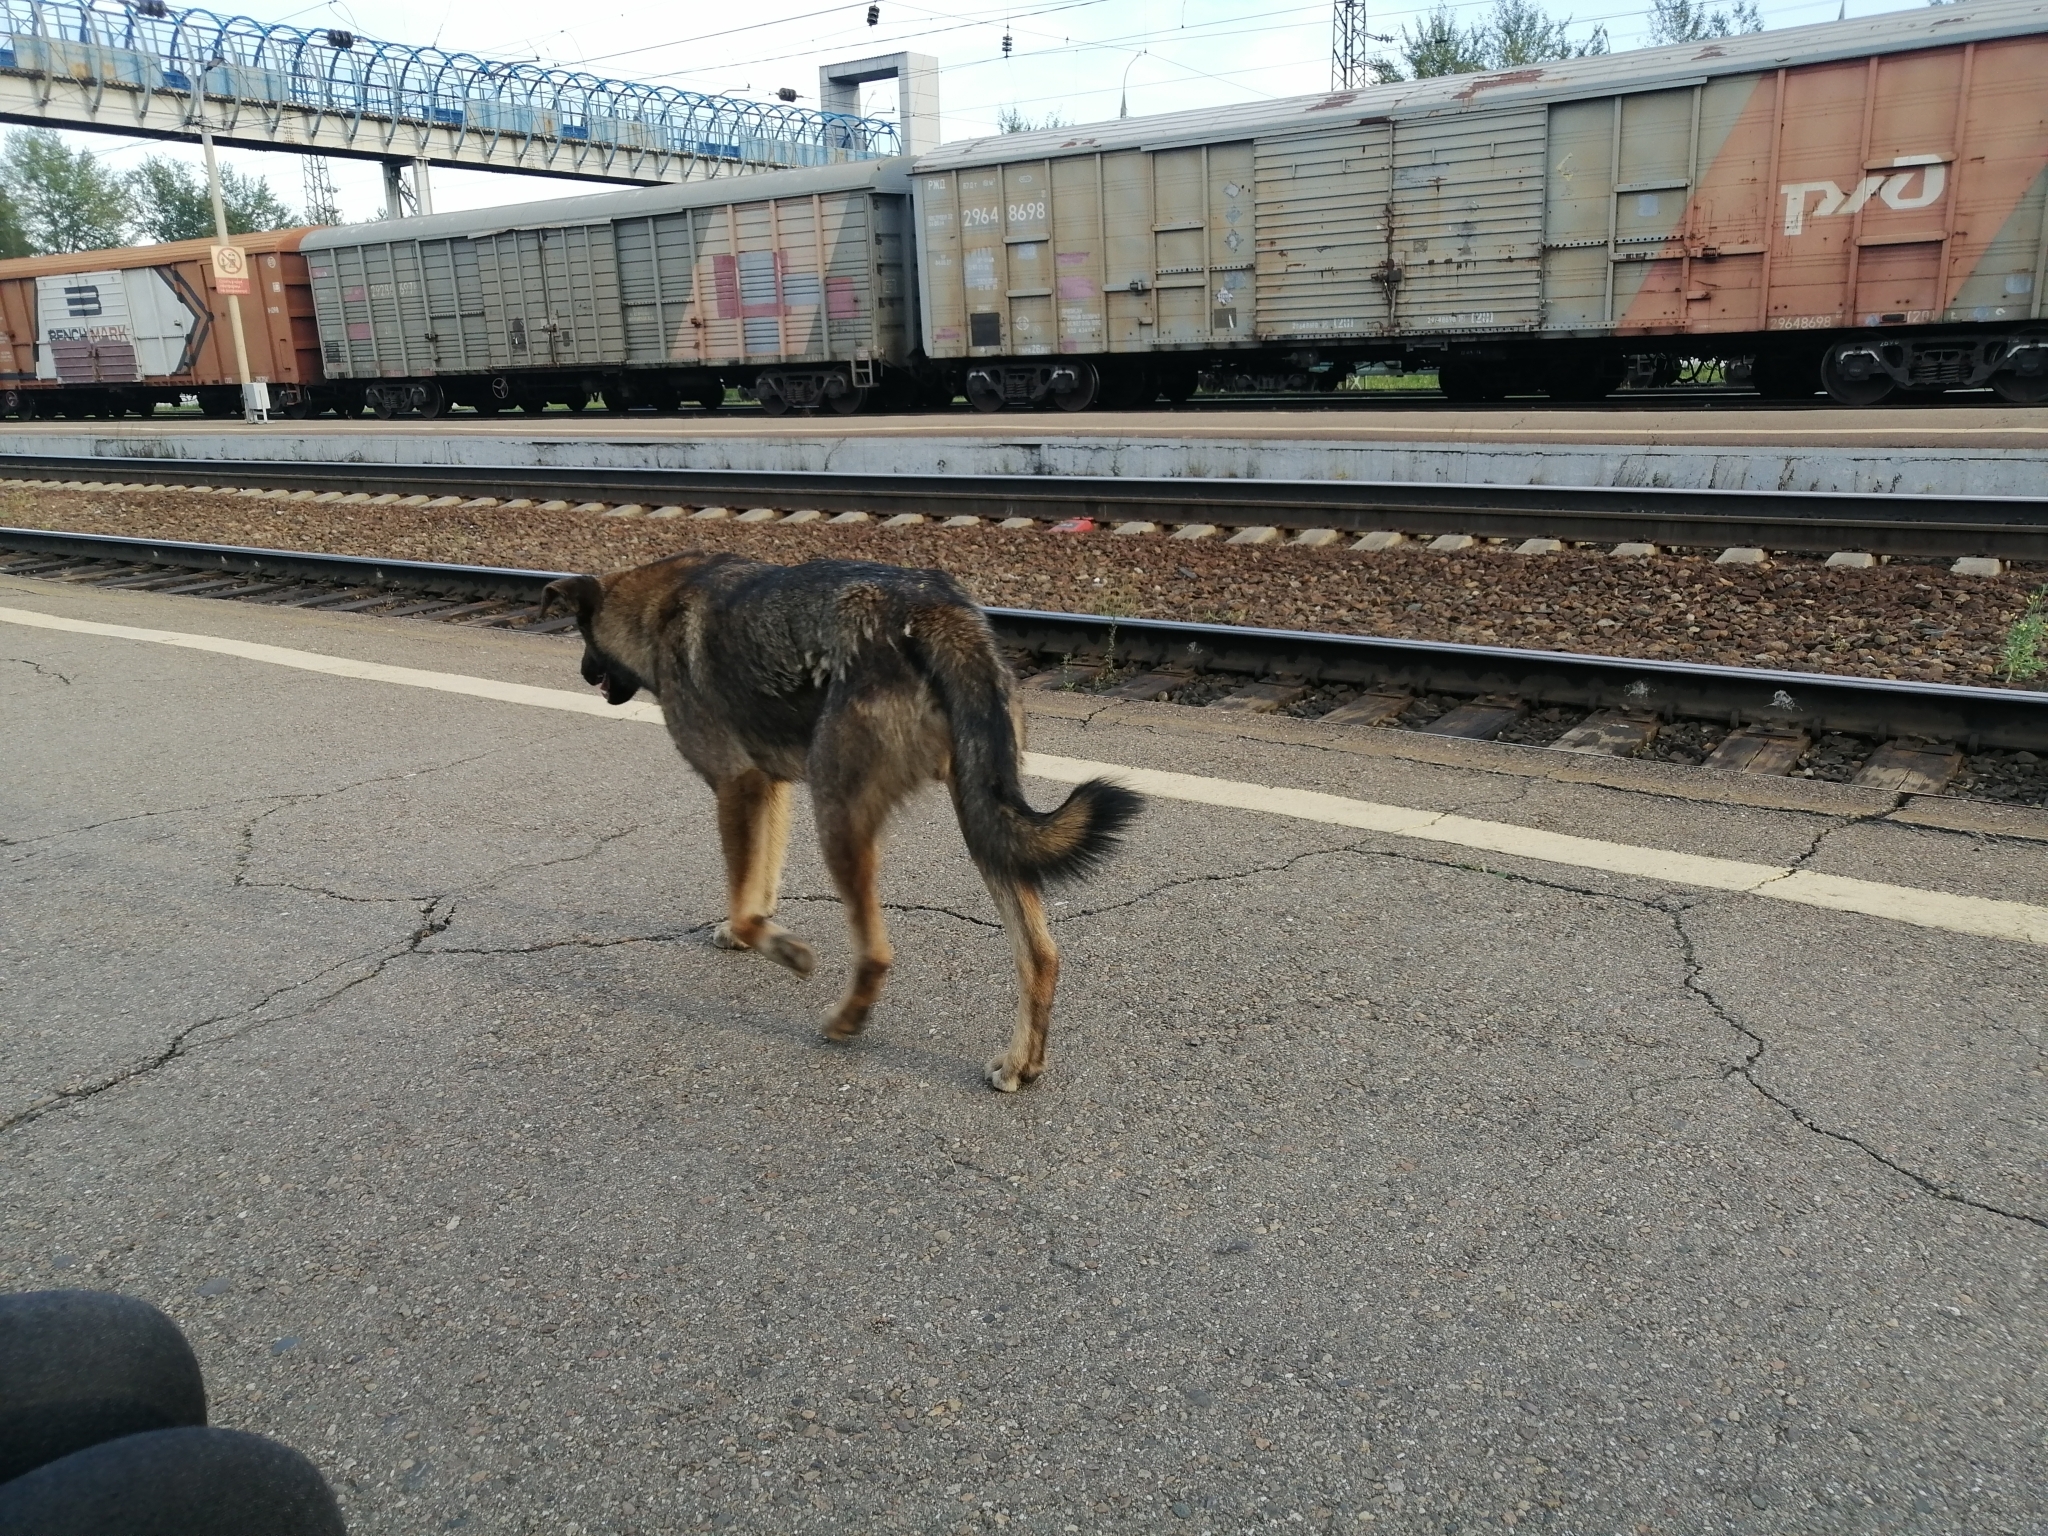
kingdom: Animalia
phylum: Chordata
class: Mammalia
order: Carnivora
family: Canidae
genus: Canis
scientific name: Canis lupus
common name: Gray wolf
